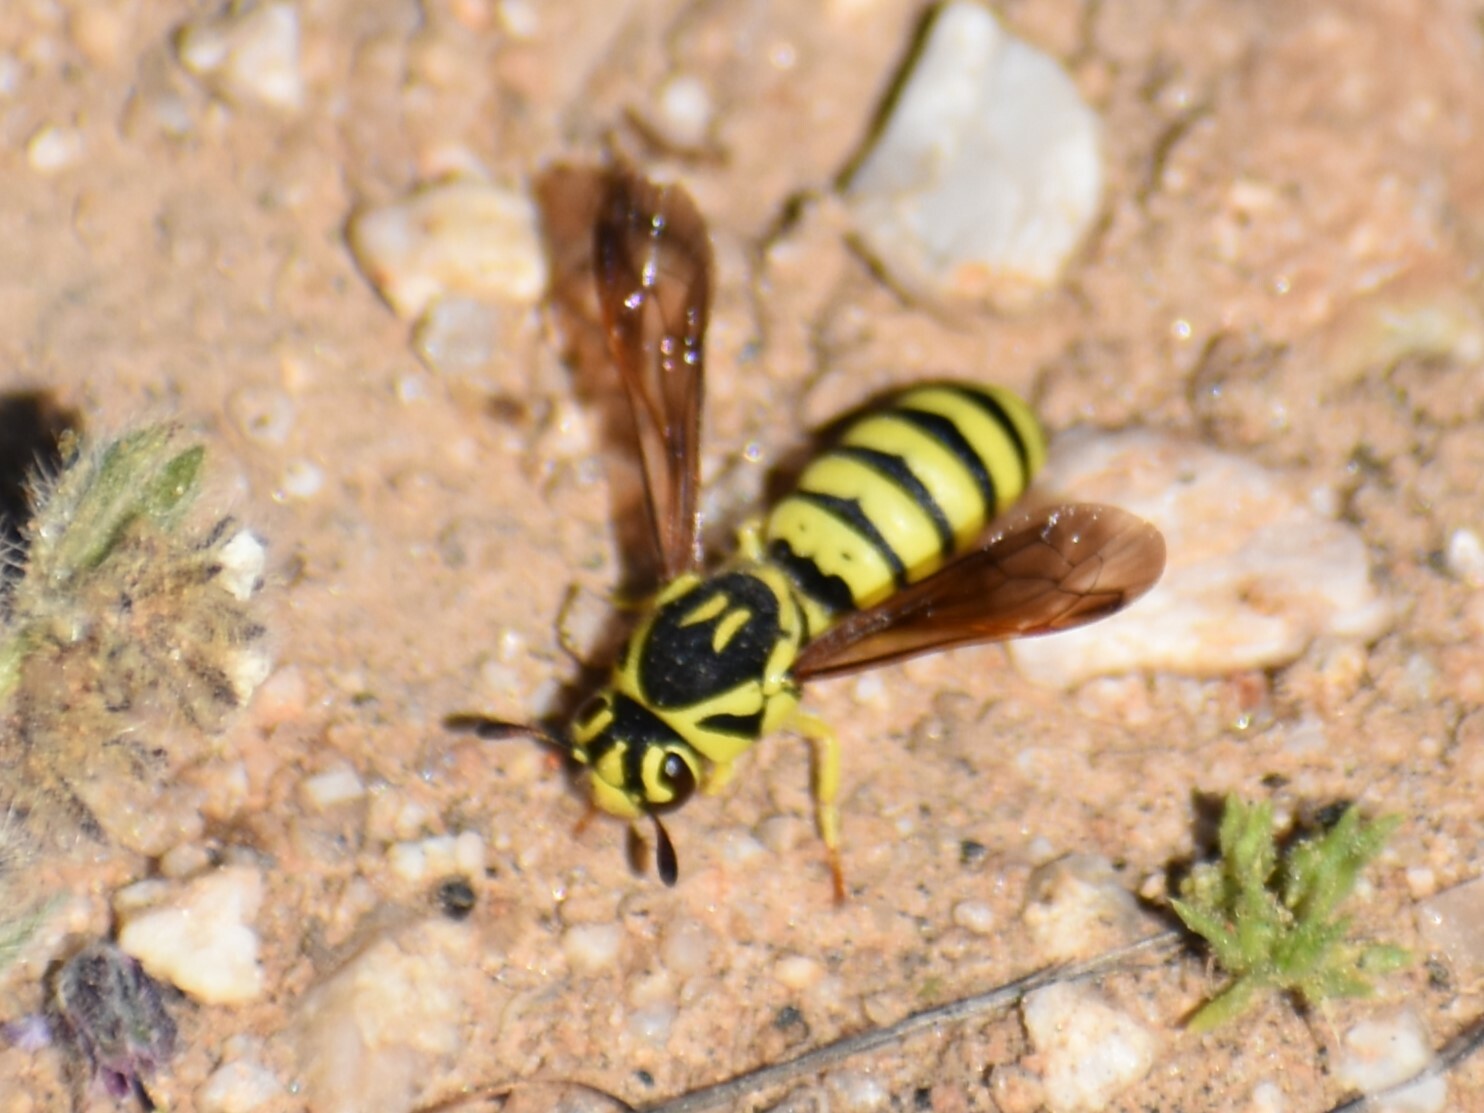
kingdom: Animalia
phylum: Arthropoda
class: Insecta
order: Hymenoptera
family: Masaridae
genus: Pseudomasaris
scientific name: Pseudomasaris edwardsi
